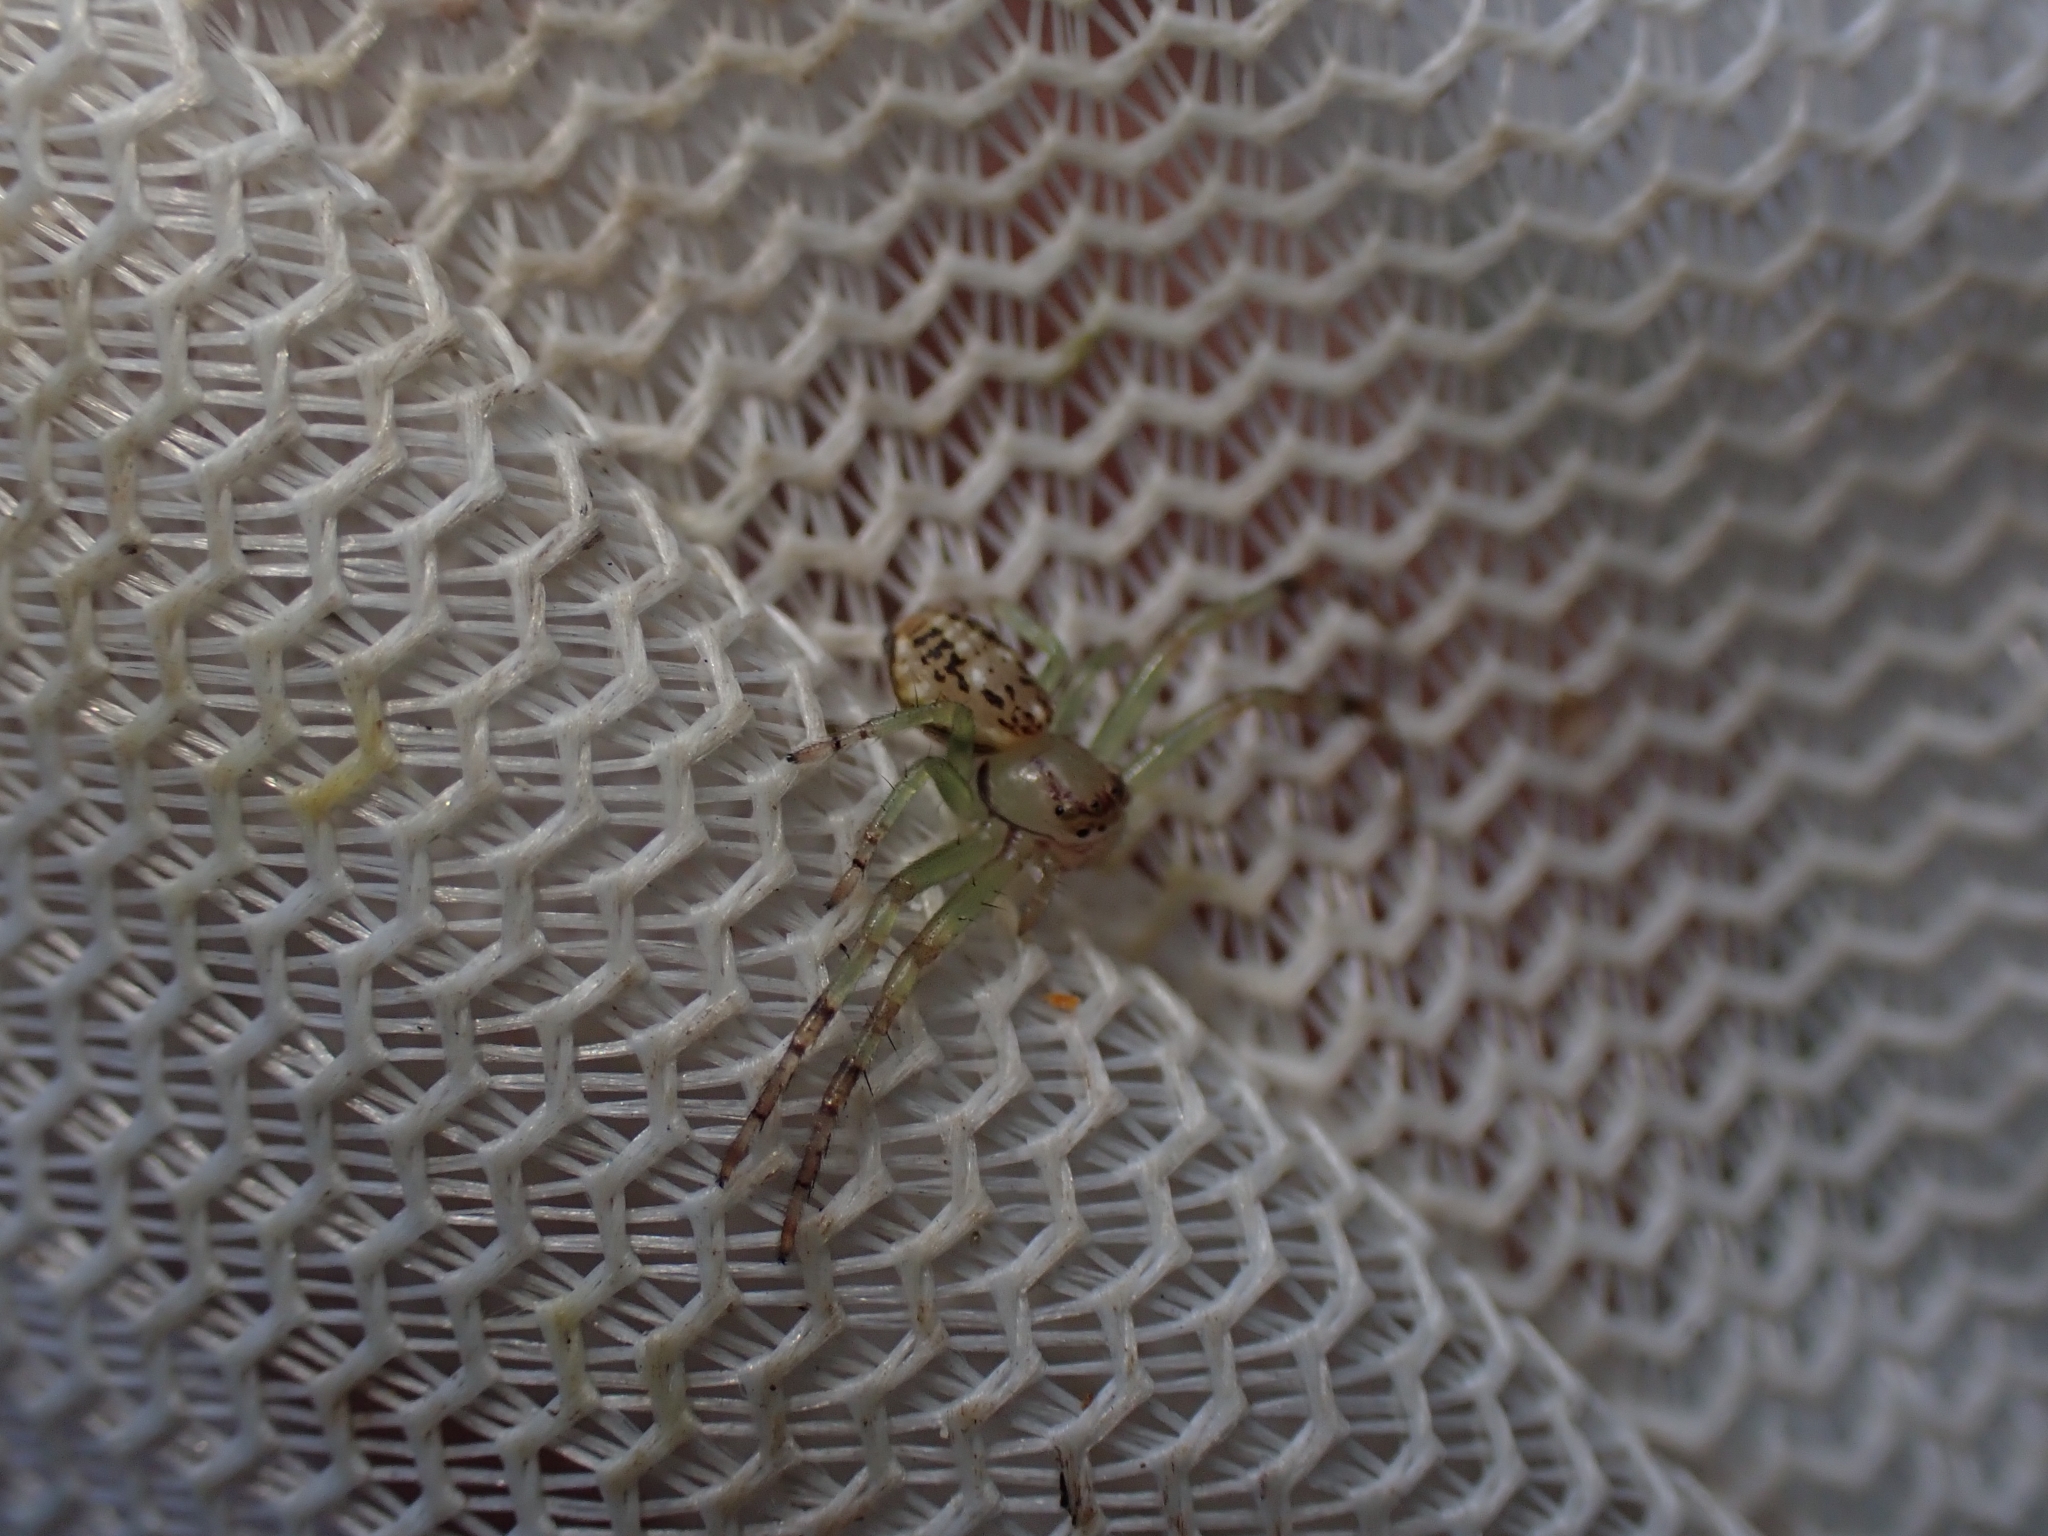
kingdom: Animalia
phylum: Arthropoda
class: Arachnida
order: Araneae
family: Thomisidae
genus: Diaea
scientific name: Diaea ambara
